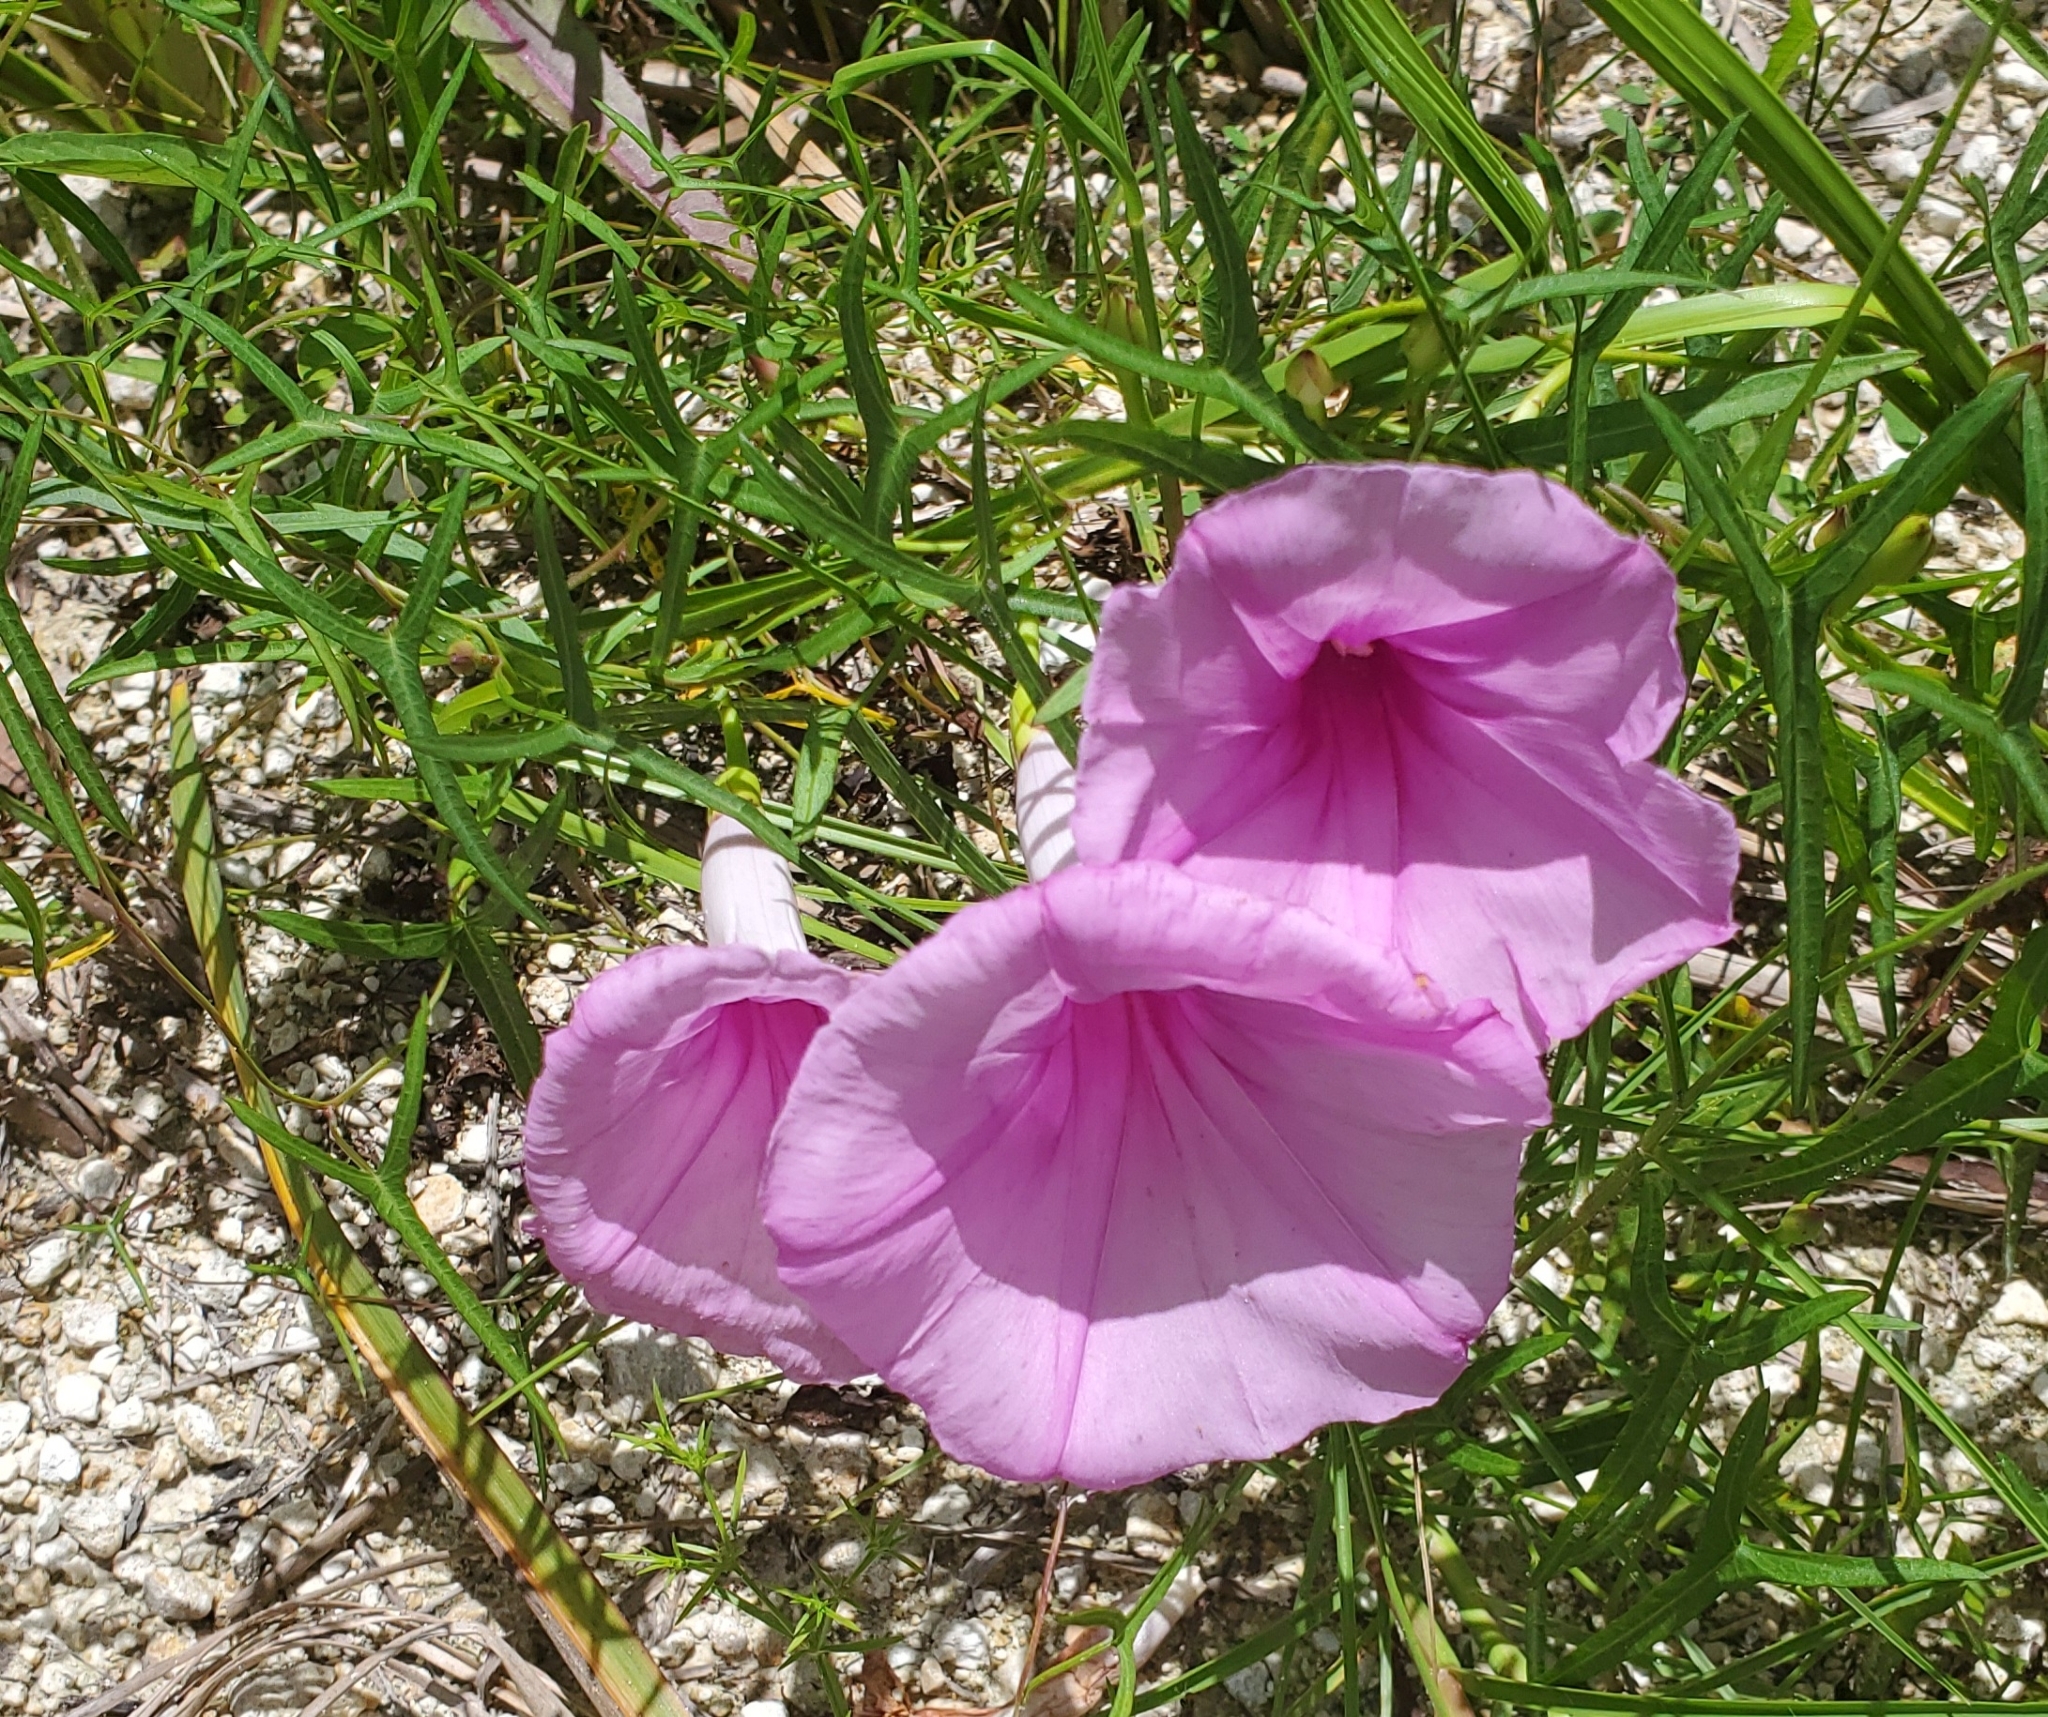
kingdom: Plantae
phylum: Tracheophyta
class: Magnoliopsida
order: Solanales
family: Convolvulaceae
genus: Ipomoea
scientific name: Ipomoea sagittata
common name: Saltmarsh morning glory
